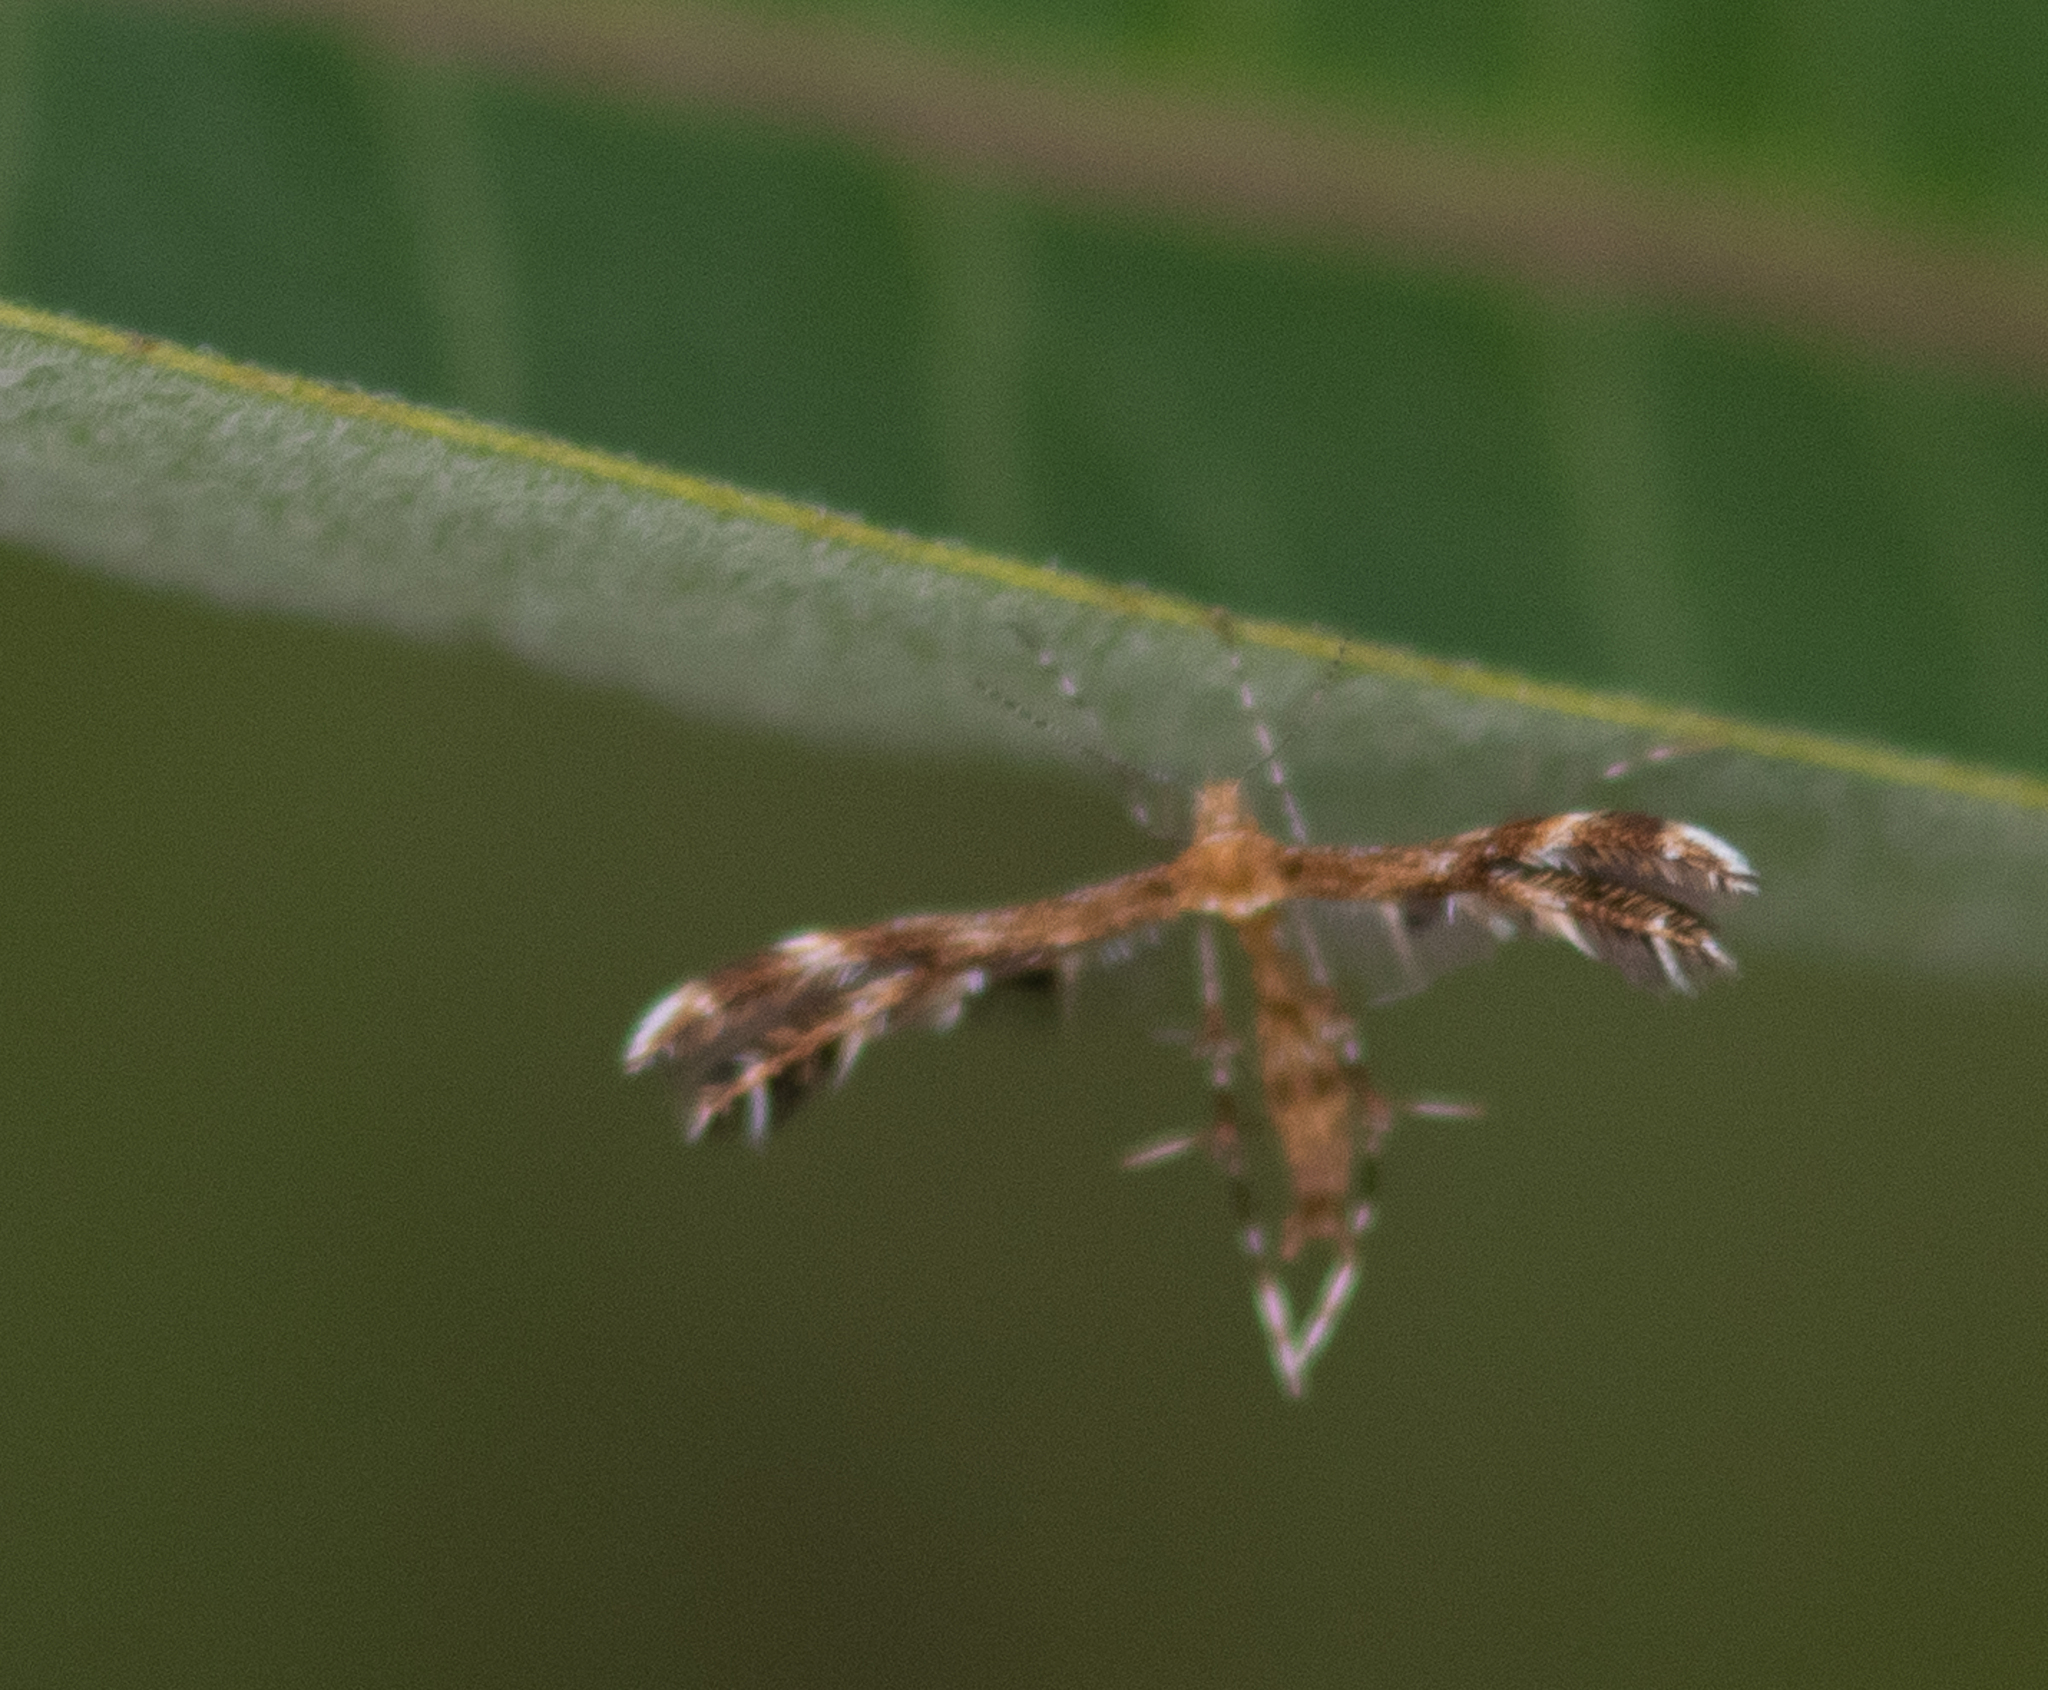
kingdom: Animalia
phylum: Arthropoda
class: Insecta
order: Lepidoptera
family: Pterophoridae
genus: Dejongia
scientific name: Dejongia lobidactylus
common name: Lobed plume moth
